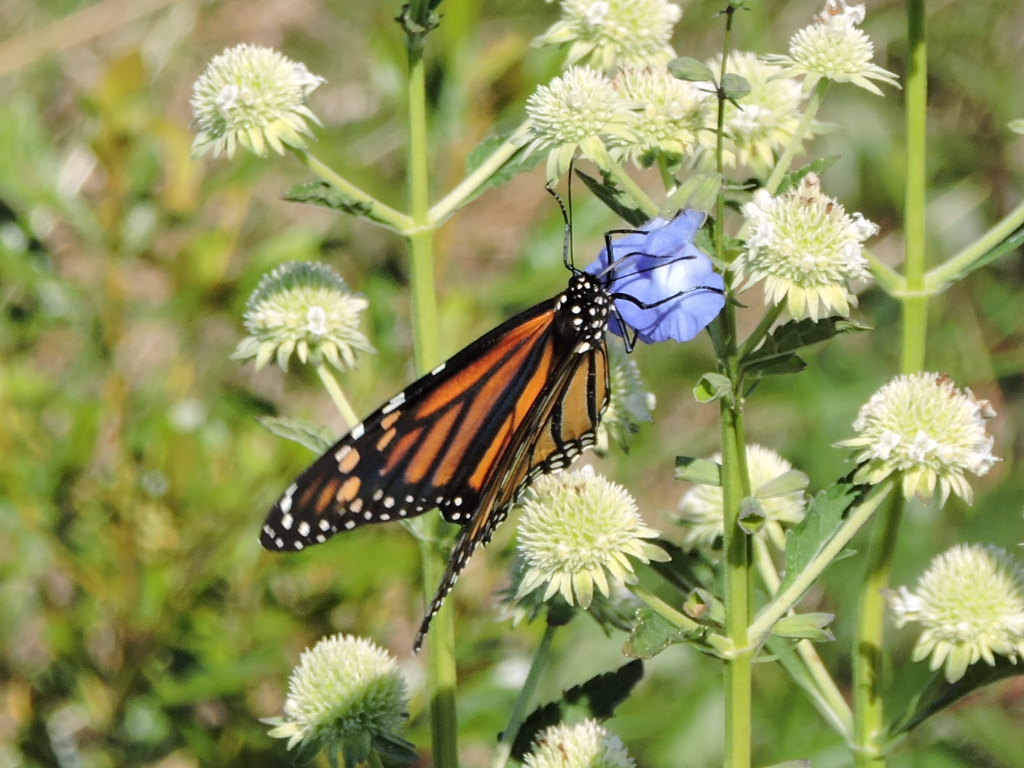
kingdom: Animalia
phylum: Arthropoda
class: Insecta
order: Lepidoptera
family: Nymphalidae
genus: Danaus
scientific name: Danaus plexippus
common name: Monarch
